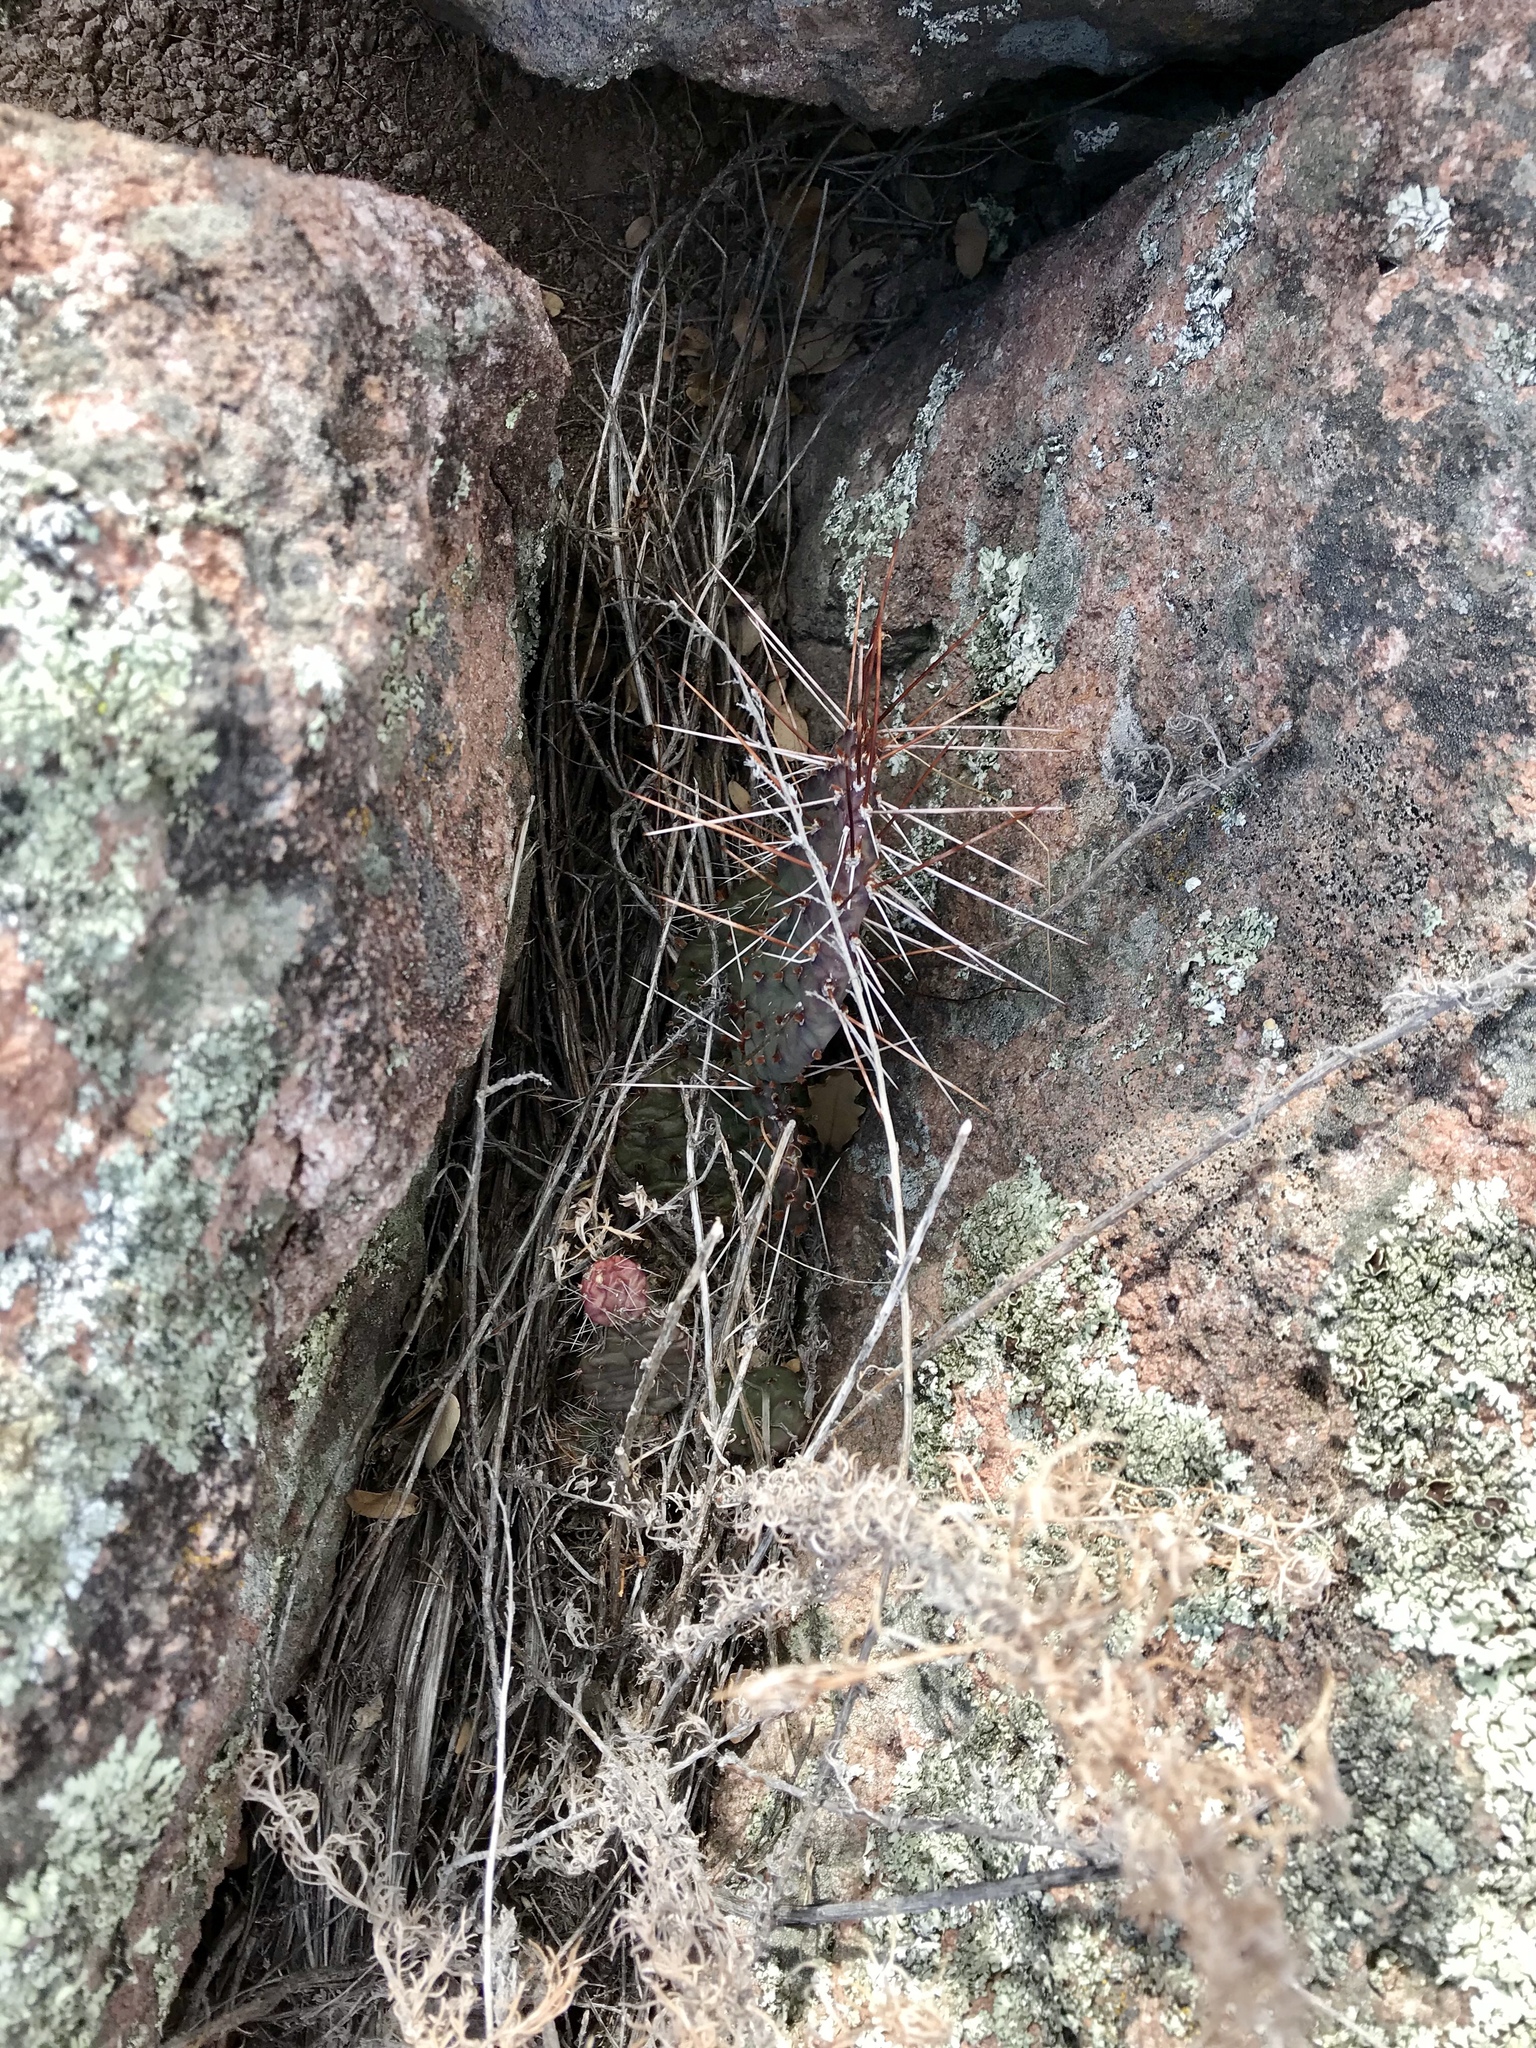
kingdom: Plantae
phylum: Tracheophyta
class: Magnoliopsida
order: Caryophyllales
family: Cactaceae
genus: Opuntia
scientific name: Opuntia phaeacantha
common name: New mexico prickly-pear
